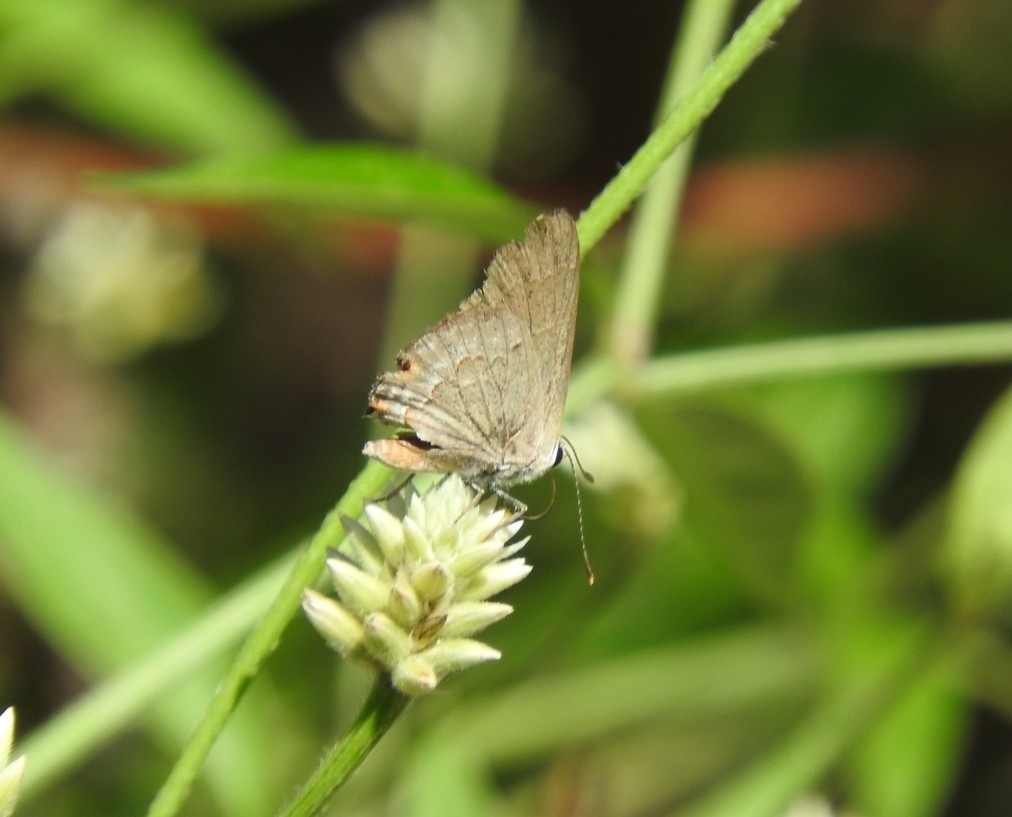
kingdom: Animalia
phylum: Arthropoda
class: Insecta
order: Lepidoptera
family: Lycaenidae
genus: Thecla
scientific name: Thecla rufofusca
